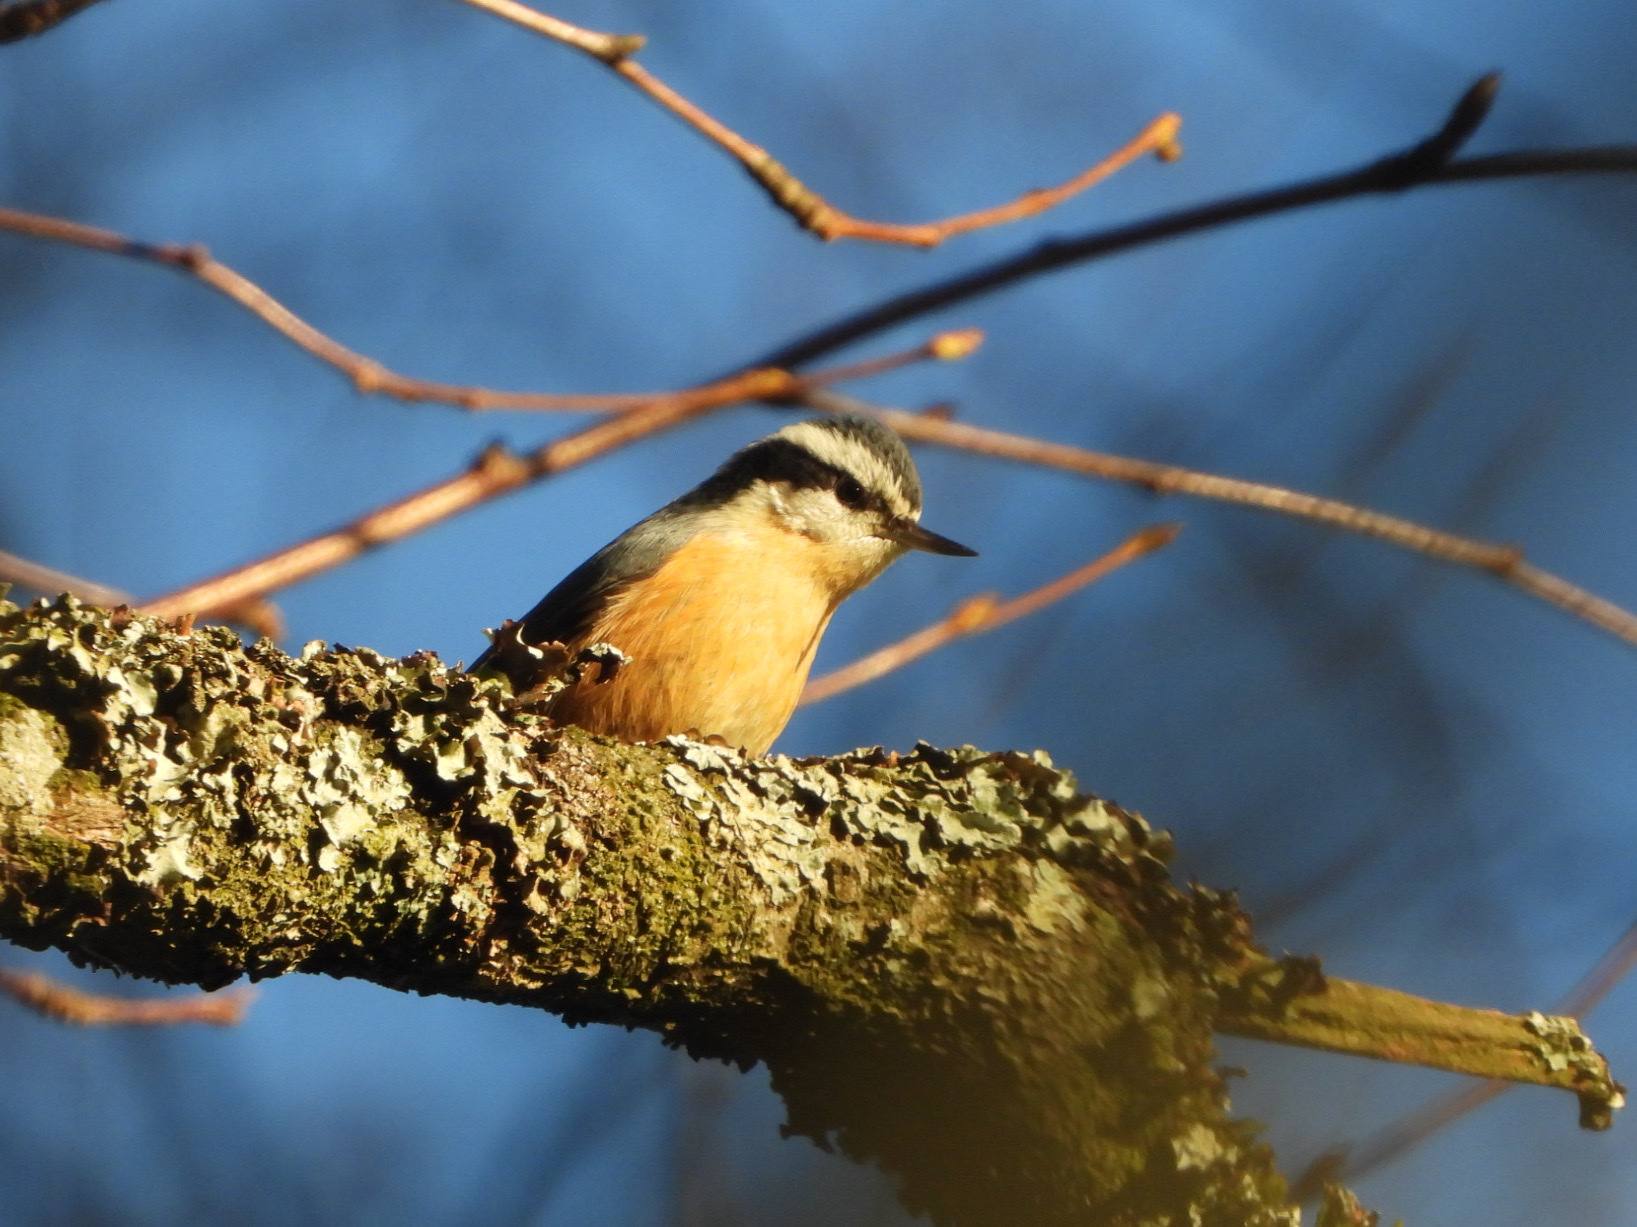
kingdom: Animalia
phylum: Chordata
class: Aves
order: Passeriformes
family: Sittidae
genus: Sitta
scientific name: Sitta canadensis
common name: Red-breasted nuthatch
